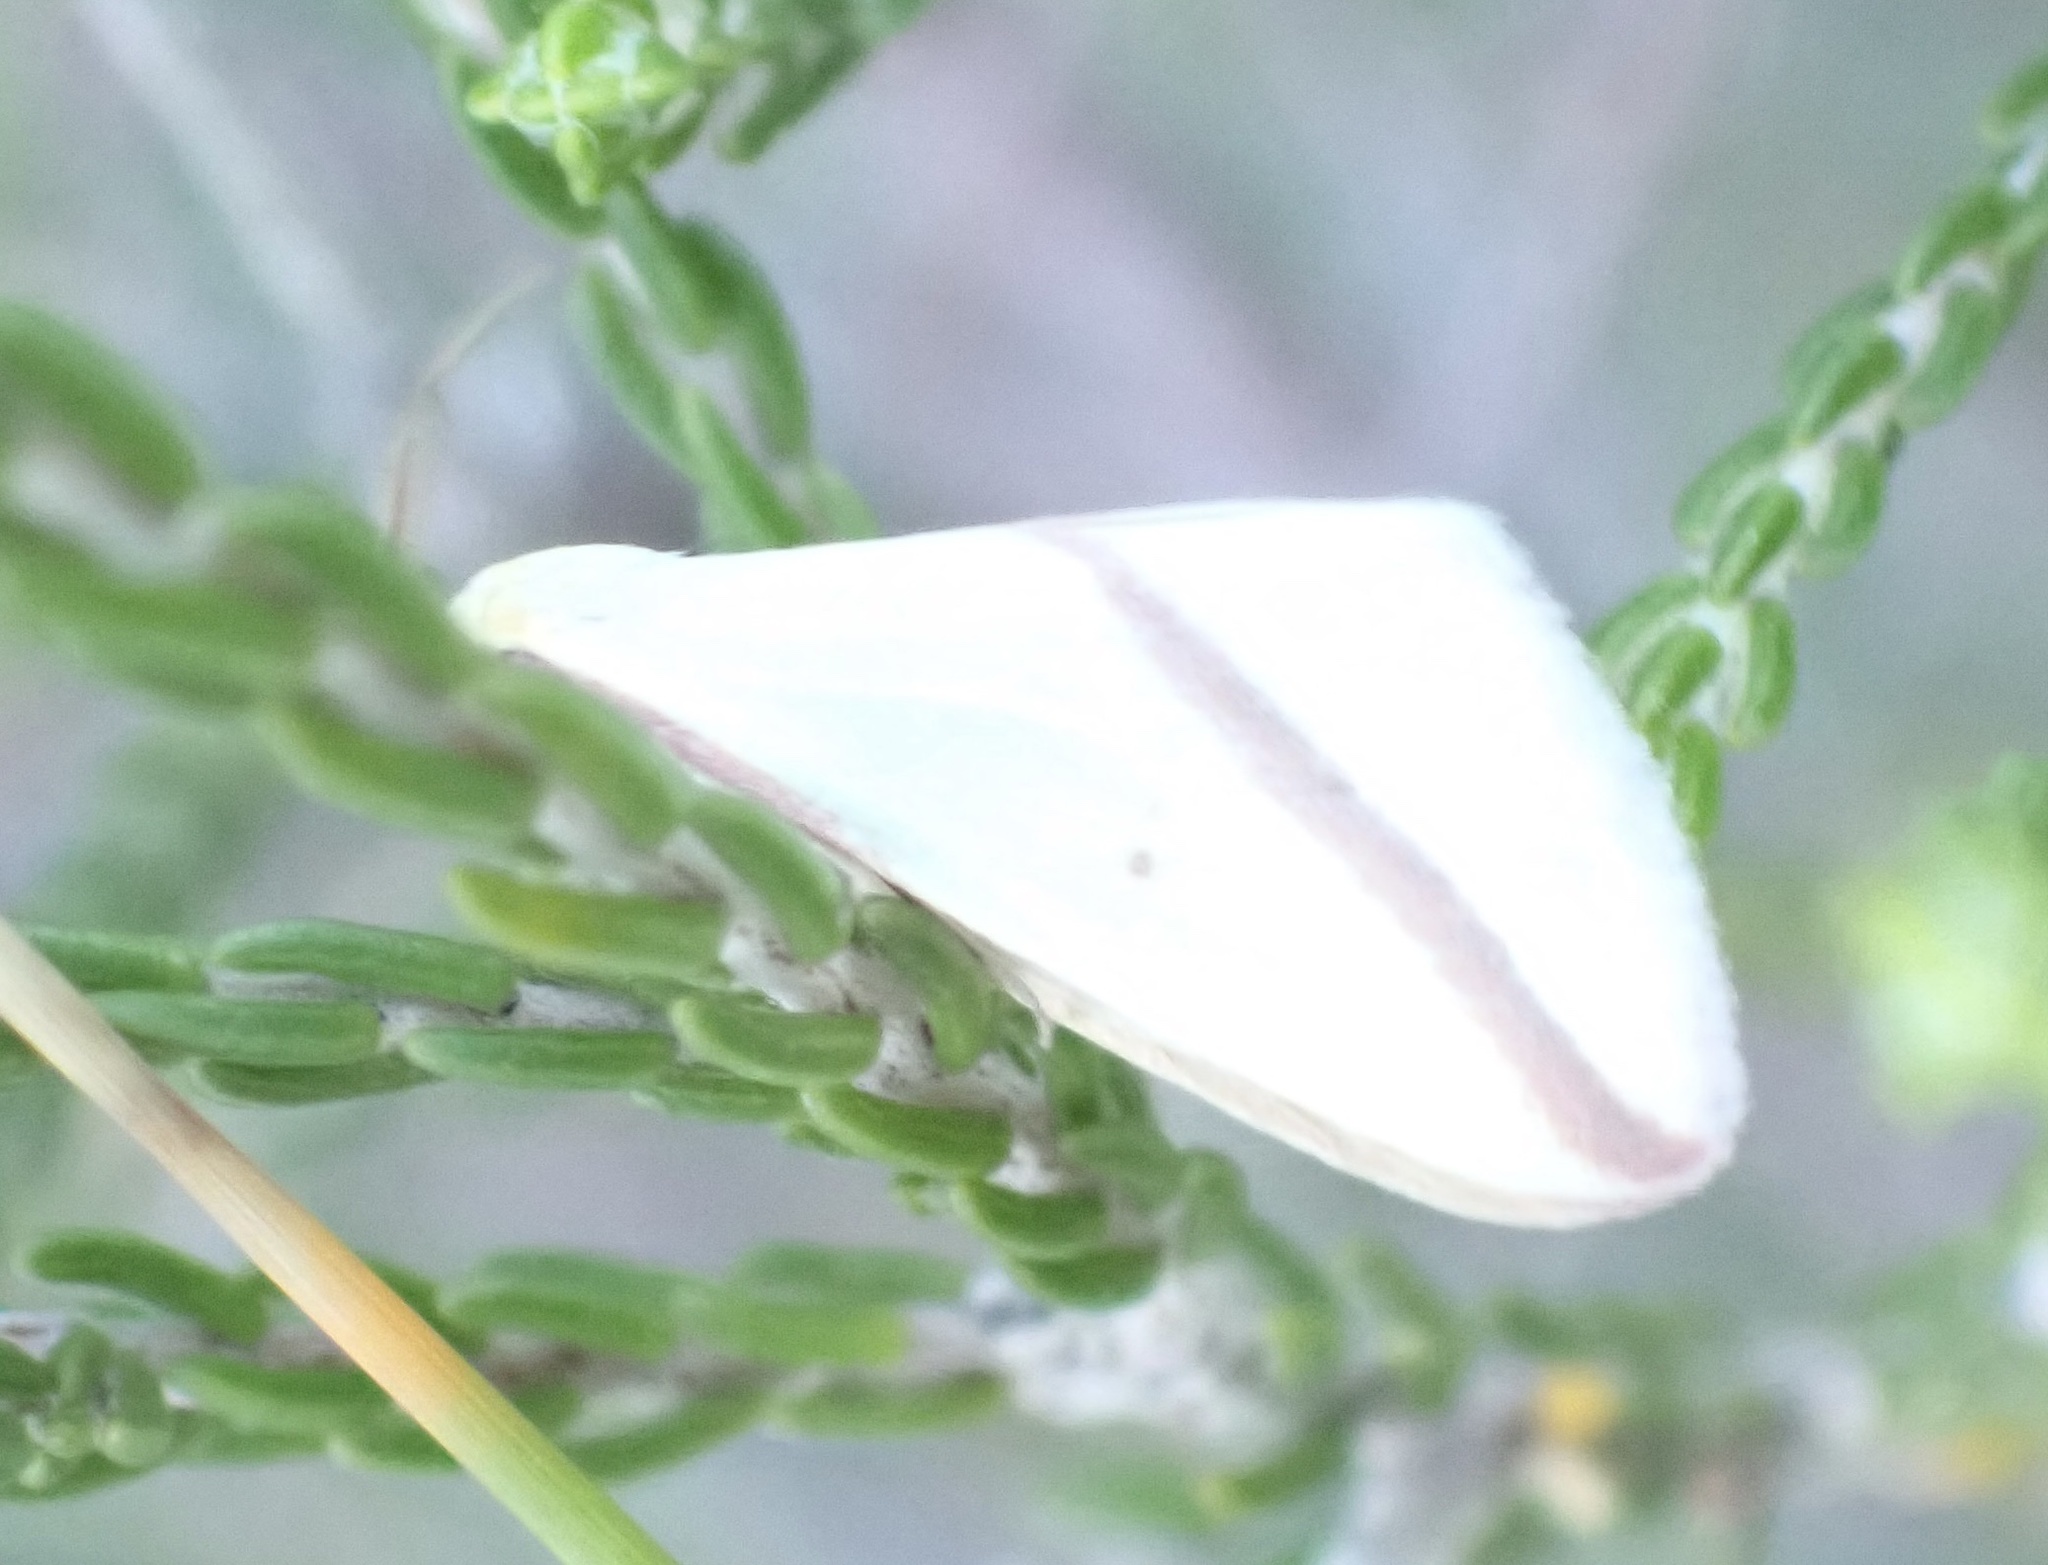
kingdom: Animalia
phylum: Arthropoda
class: Insecta
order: Lepidoptera
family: Geometridae
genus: Rhodometra
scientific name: Rhodometra sacraria
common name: Vestal
